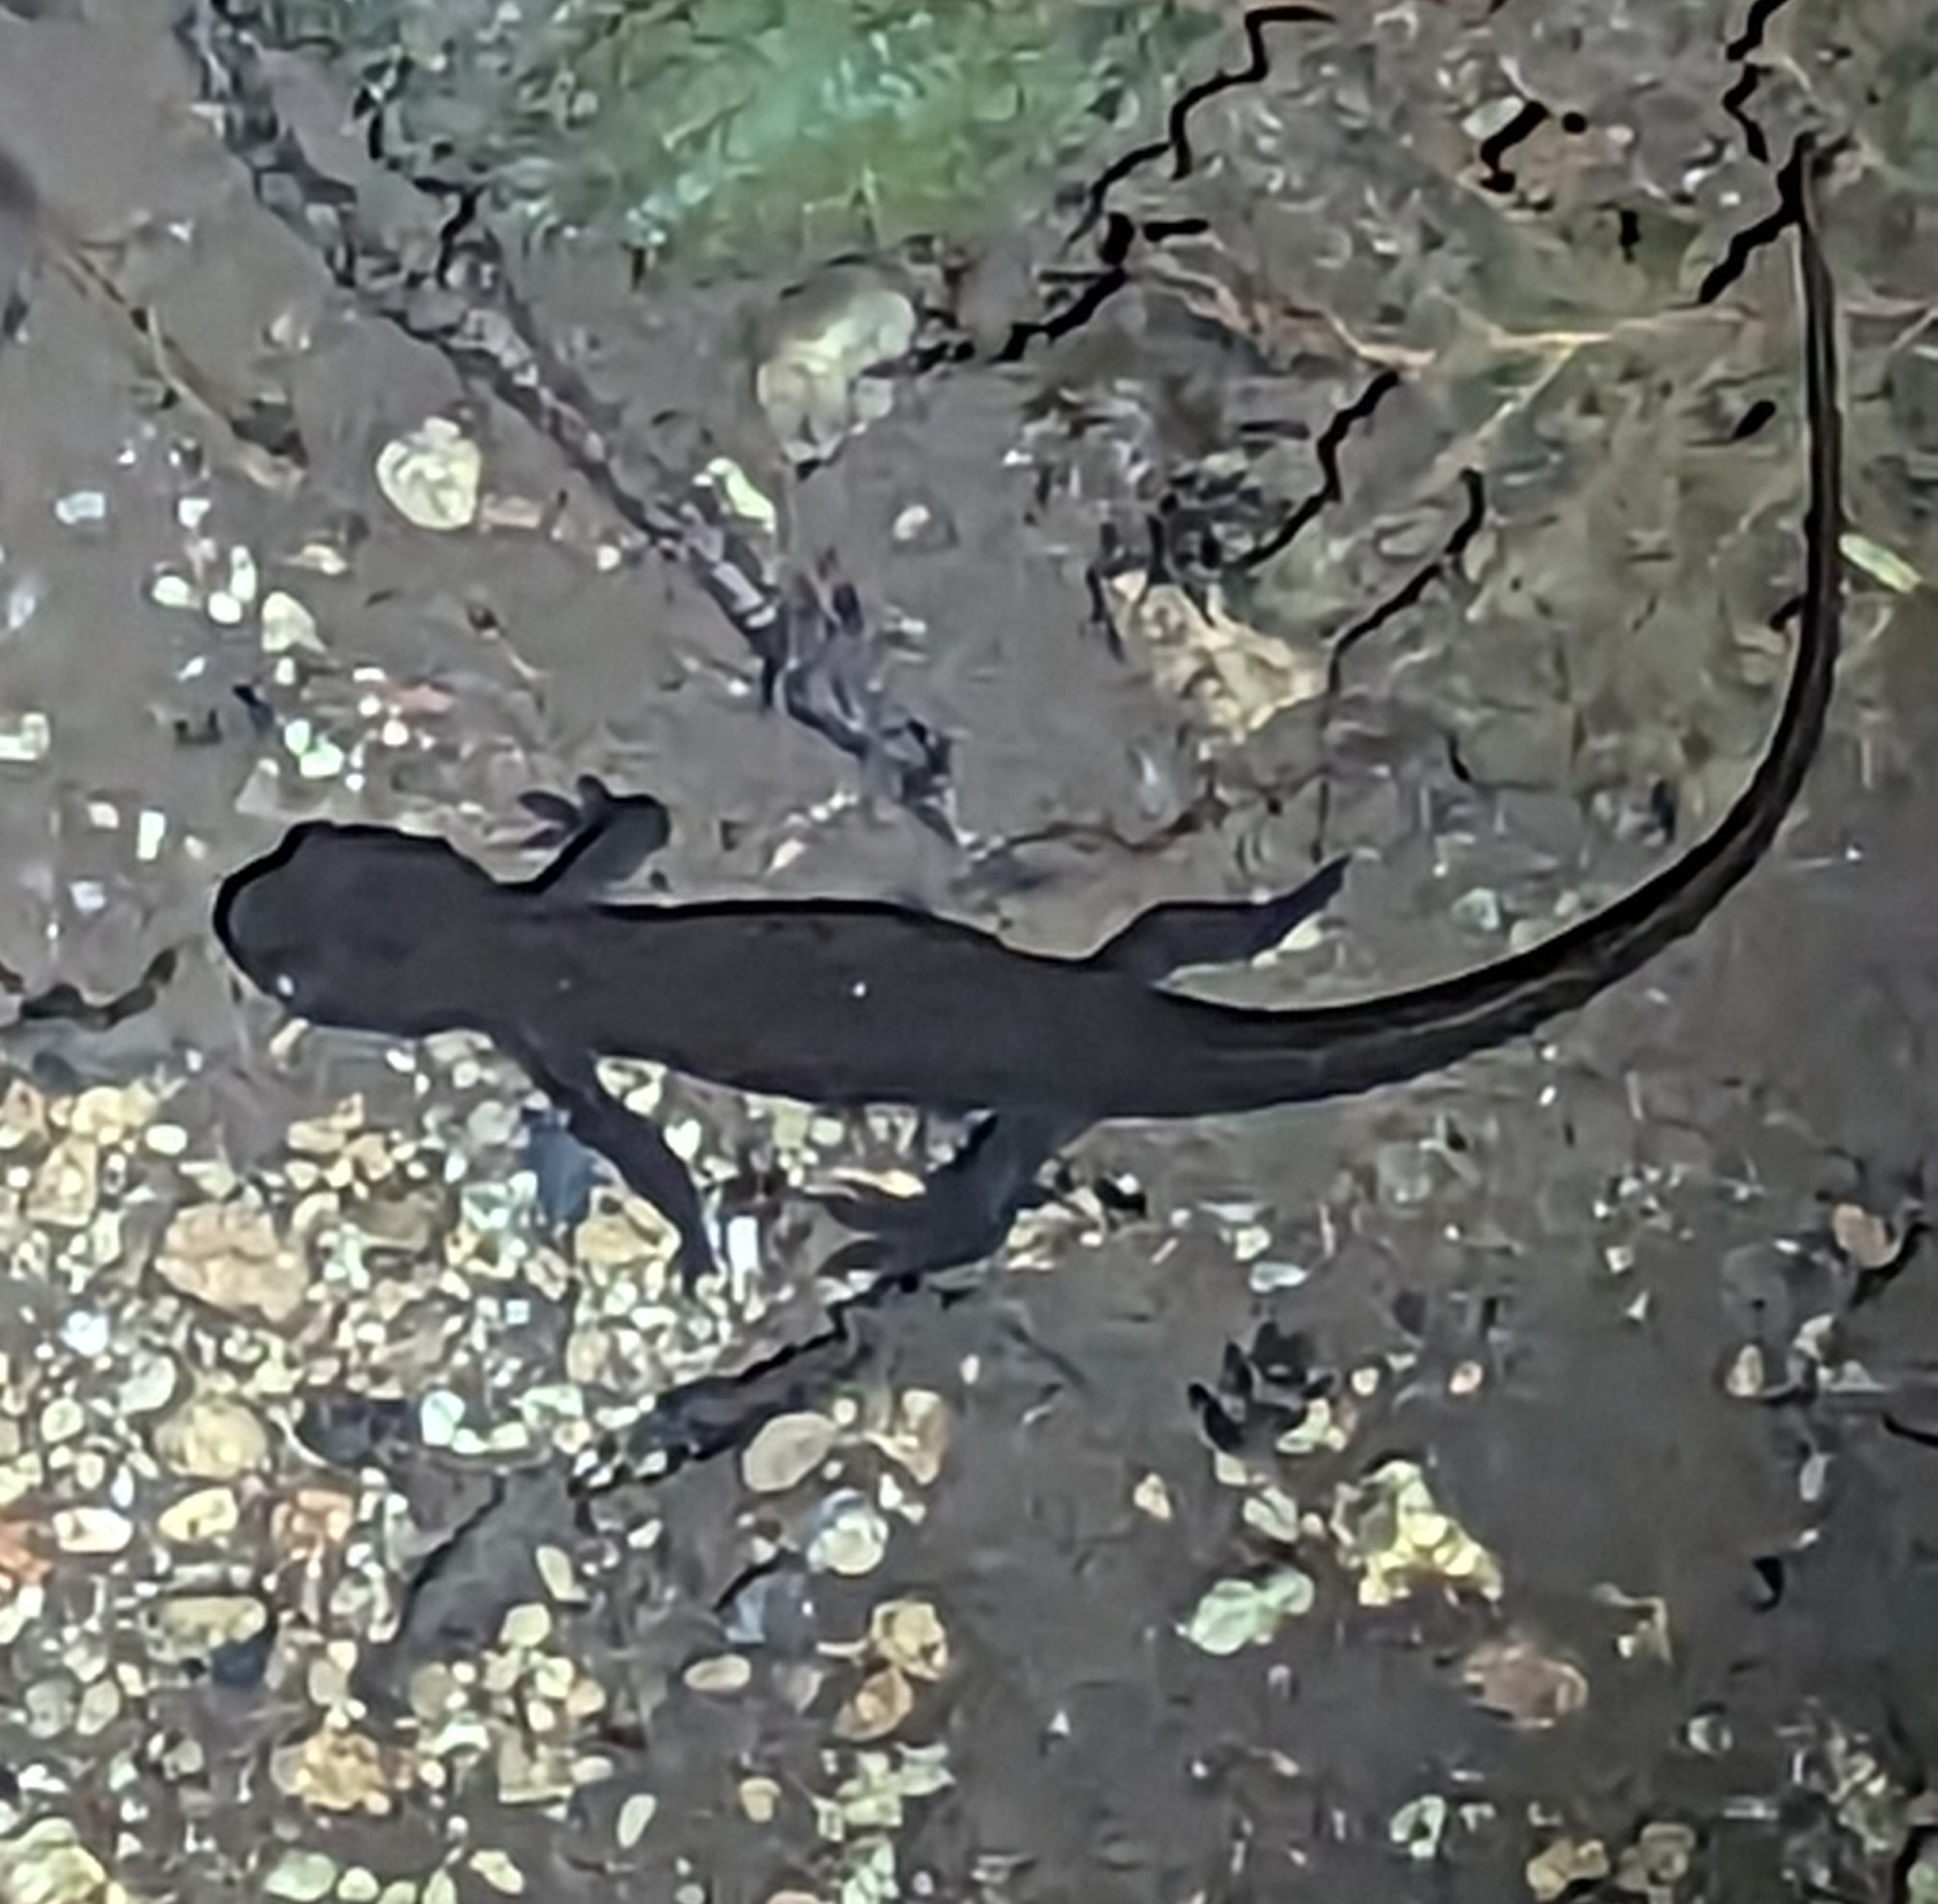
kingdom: Animalia
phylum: Chordata
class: Amphibia
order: Caudata
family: Salamandridae
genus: Taricha
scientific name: Taricha granulosa
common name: Roughskin newt
